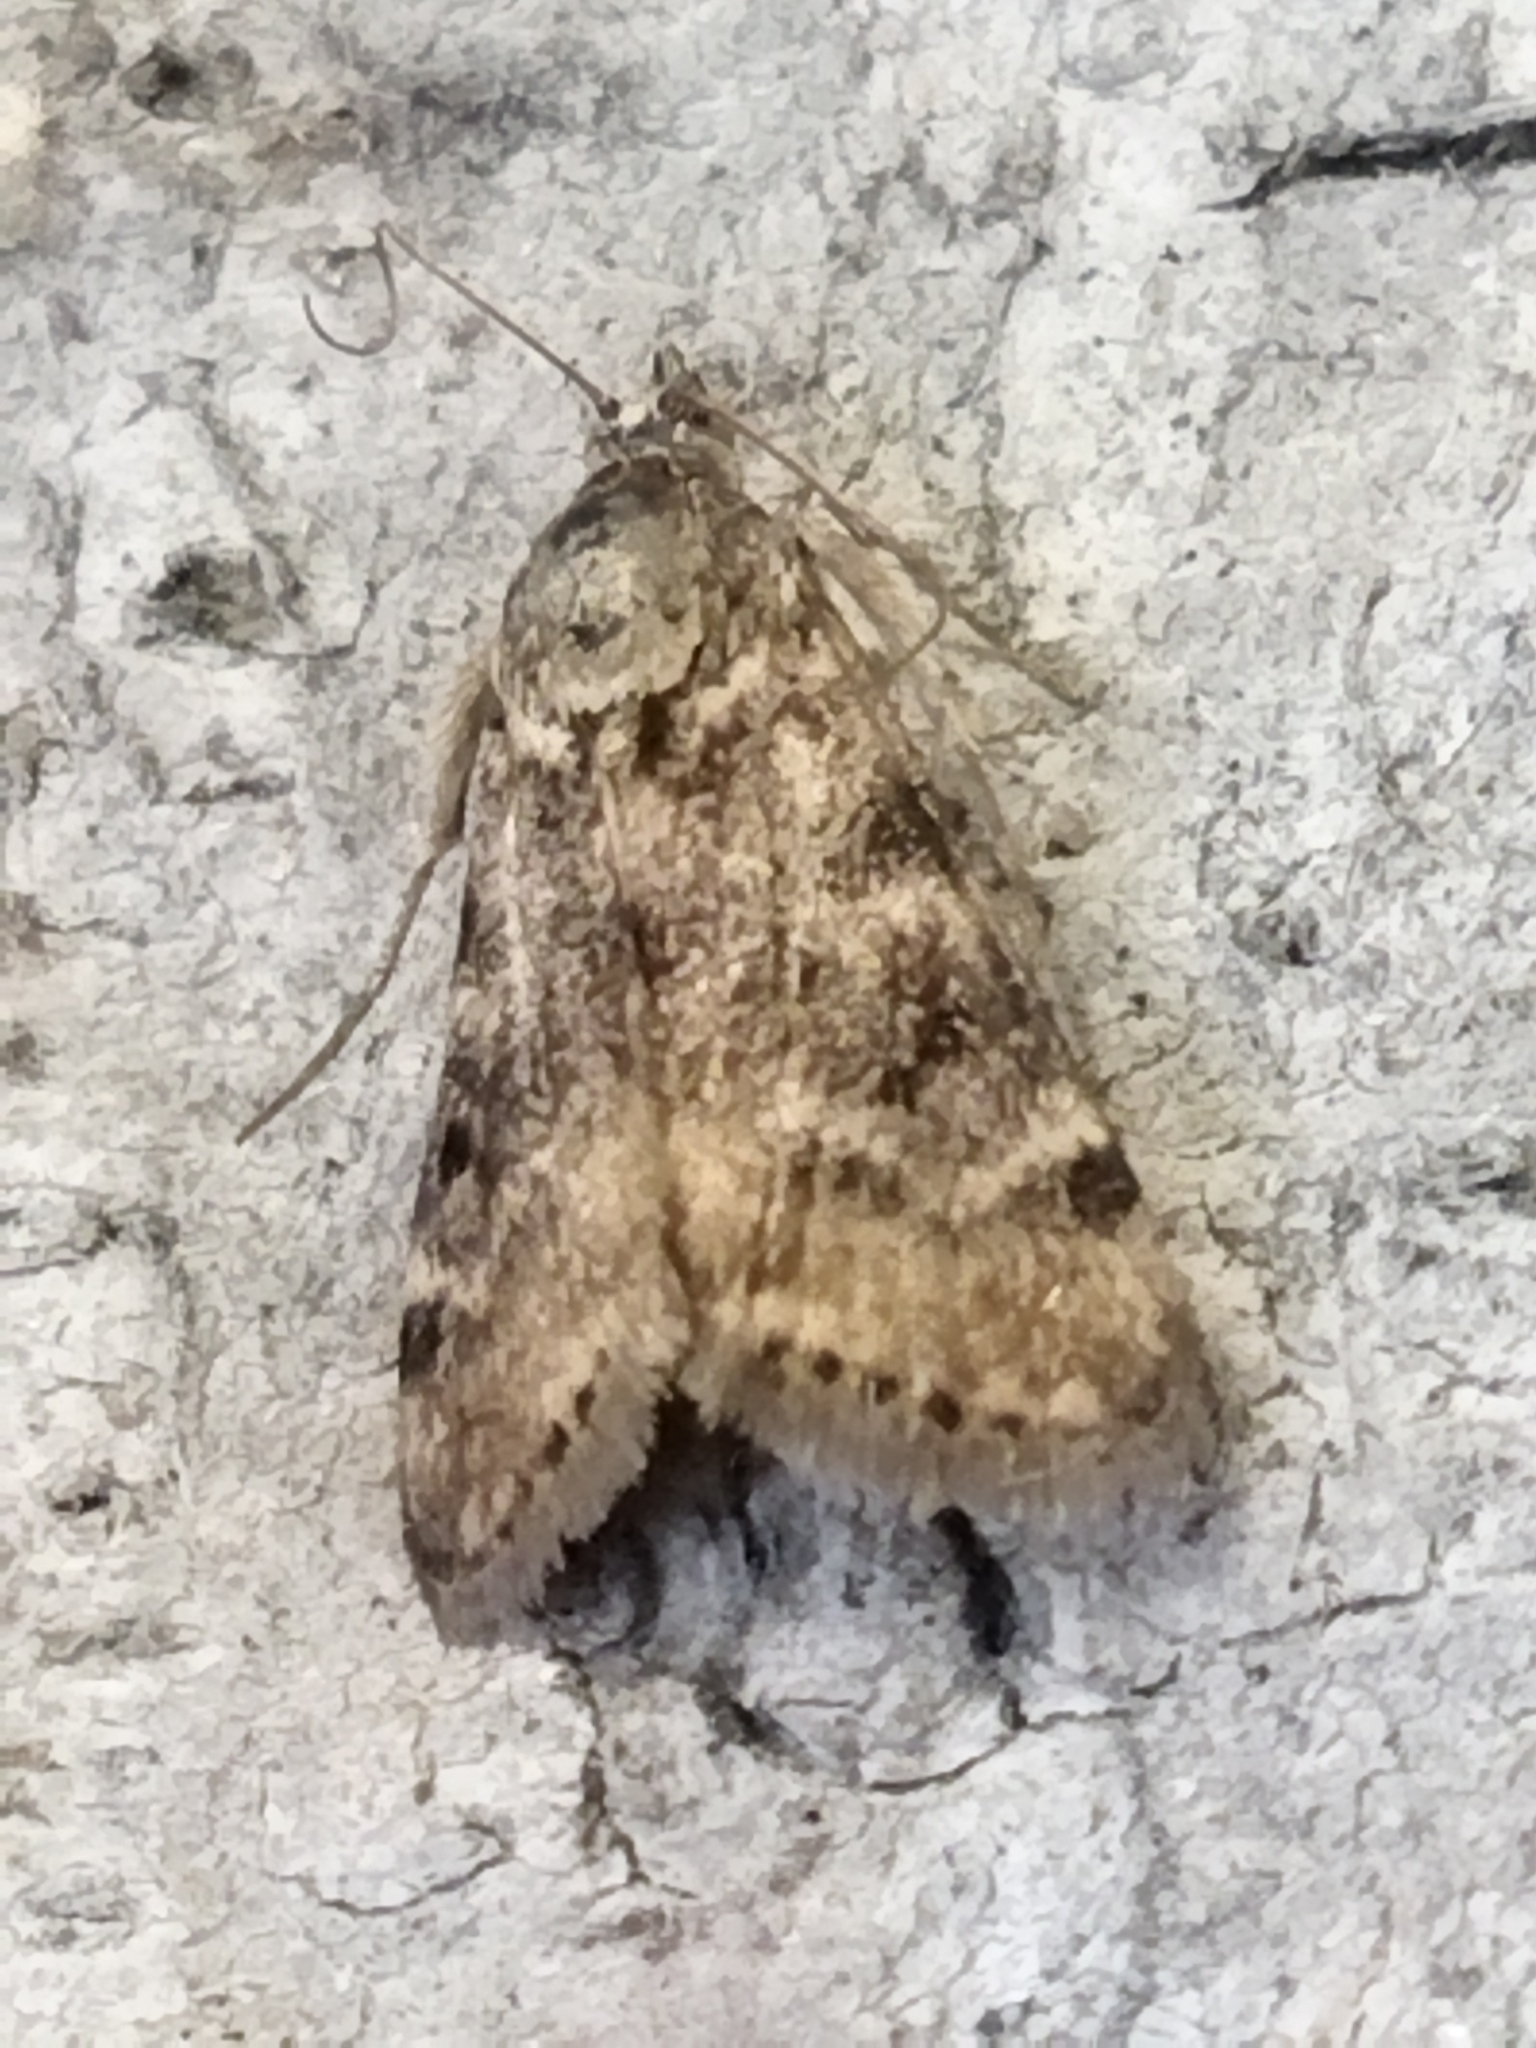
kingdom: Animalia
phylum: Arthropoda
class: Insecta
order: Lepidoptera
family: Crambidae
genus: Noctuelia
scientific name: Noctuelia Aporodes floralis
